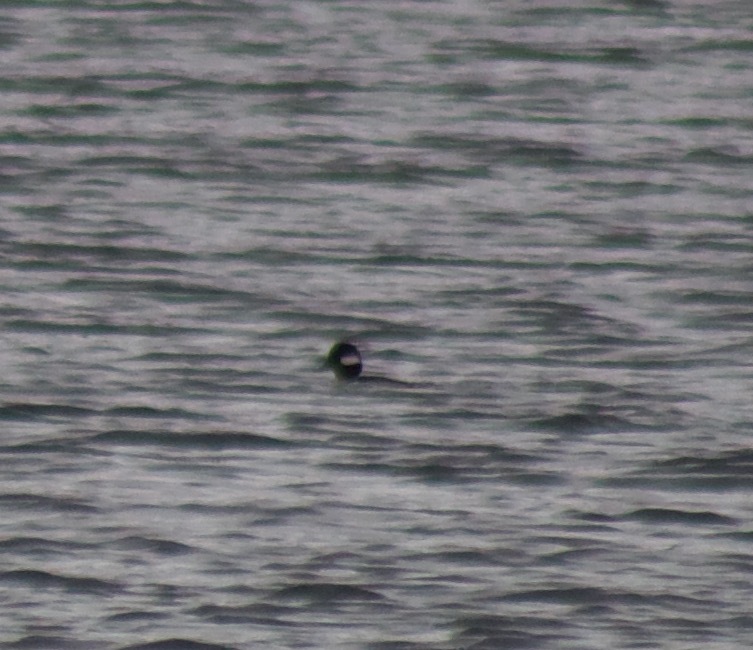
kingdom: Animalia
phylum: Chordata
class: Aves
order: Anseriformes
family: Anatidae
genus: Bucephala
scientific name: Bucephala albeola
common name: Bufflehead
